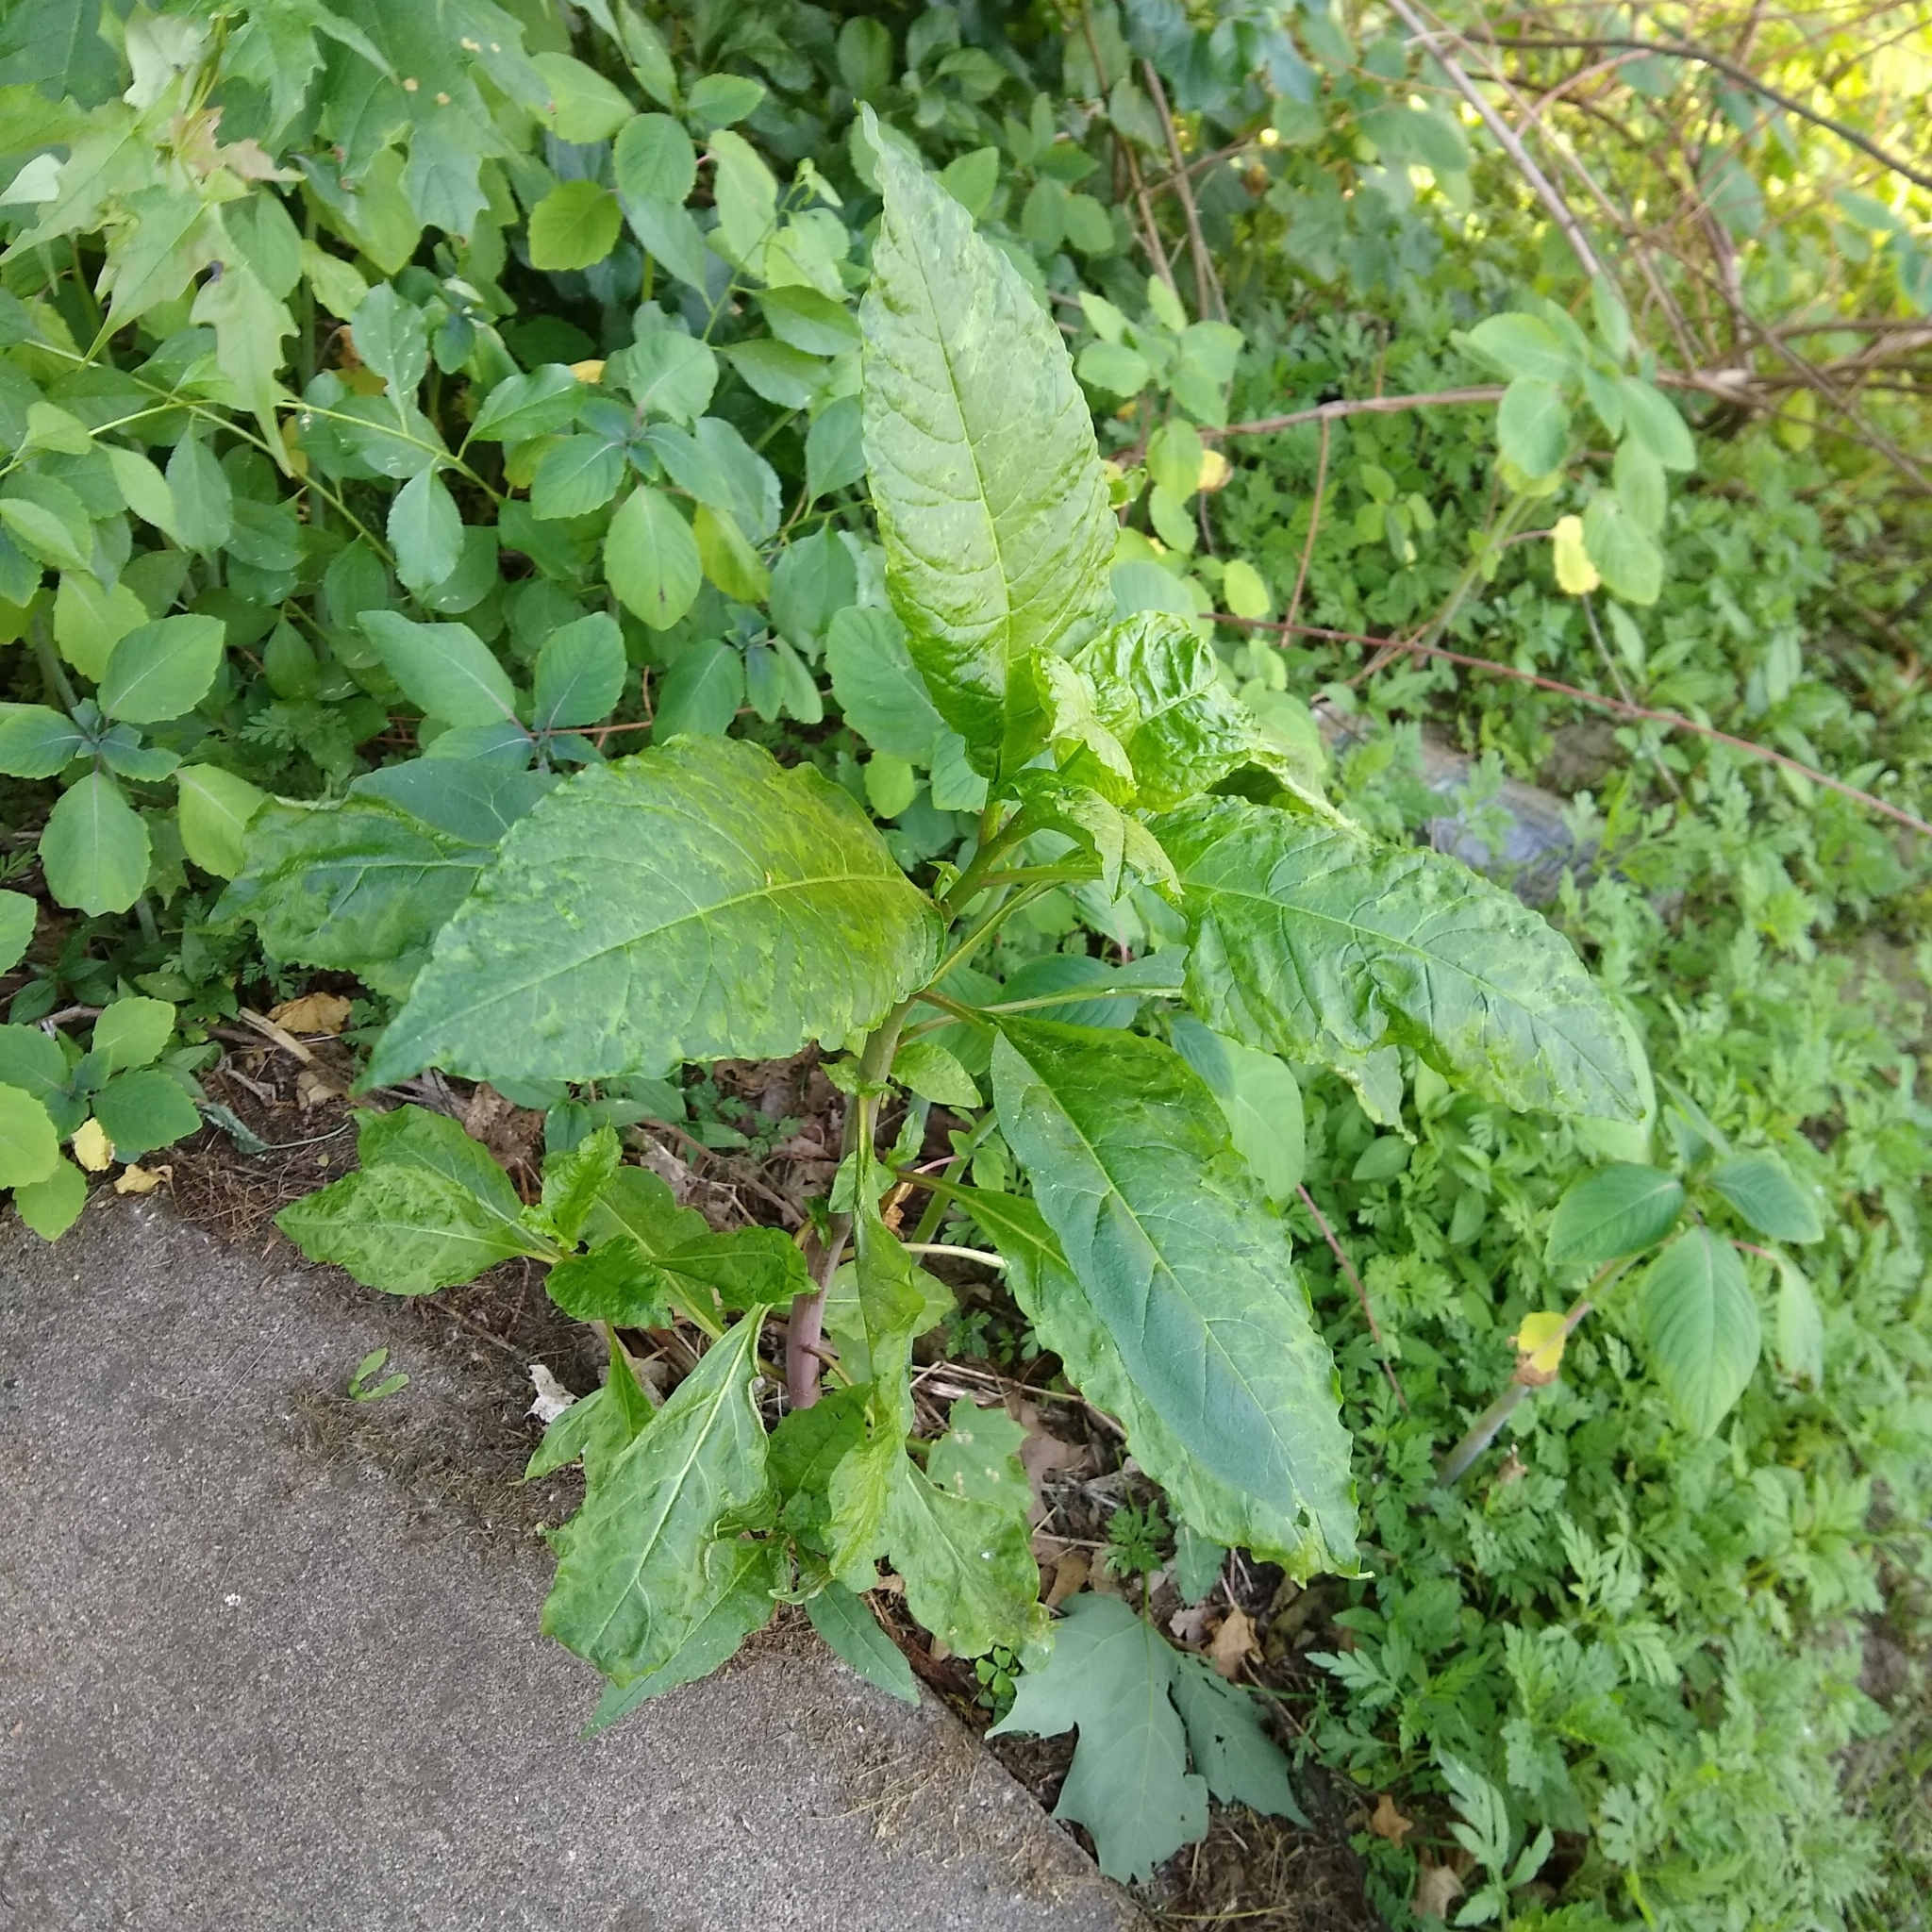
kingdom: Viruses
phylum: Pisuviricota
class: Stelpaviricetes
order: Patatavirales
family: Potyviridae
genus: Potyvirus
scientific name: Potyvirus Pokeweed mosaic virus
